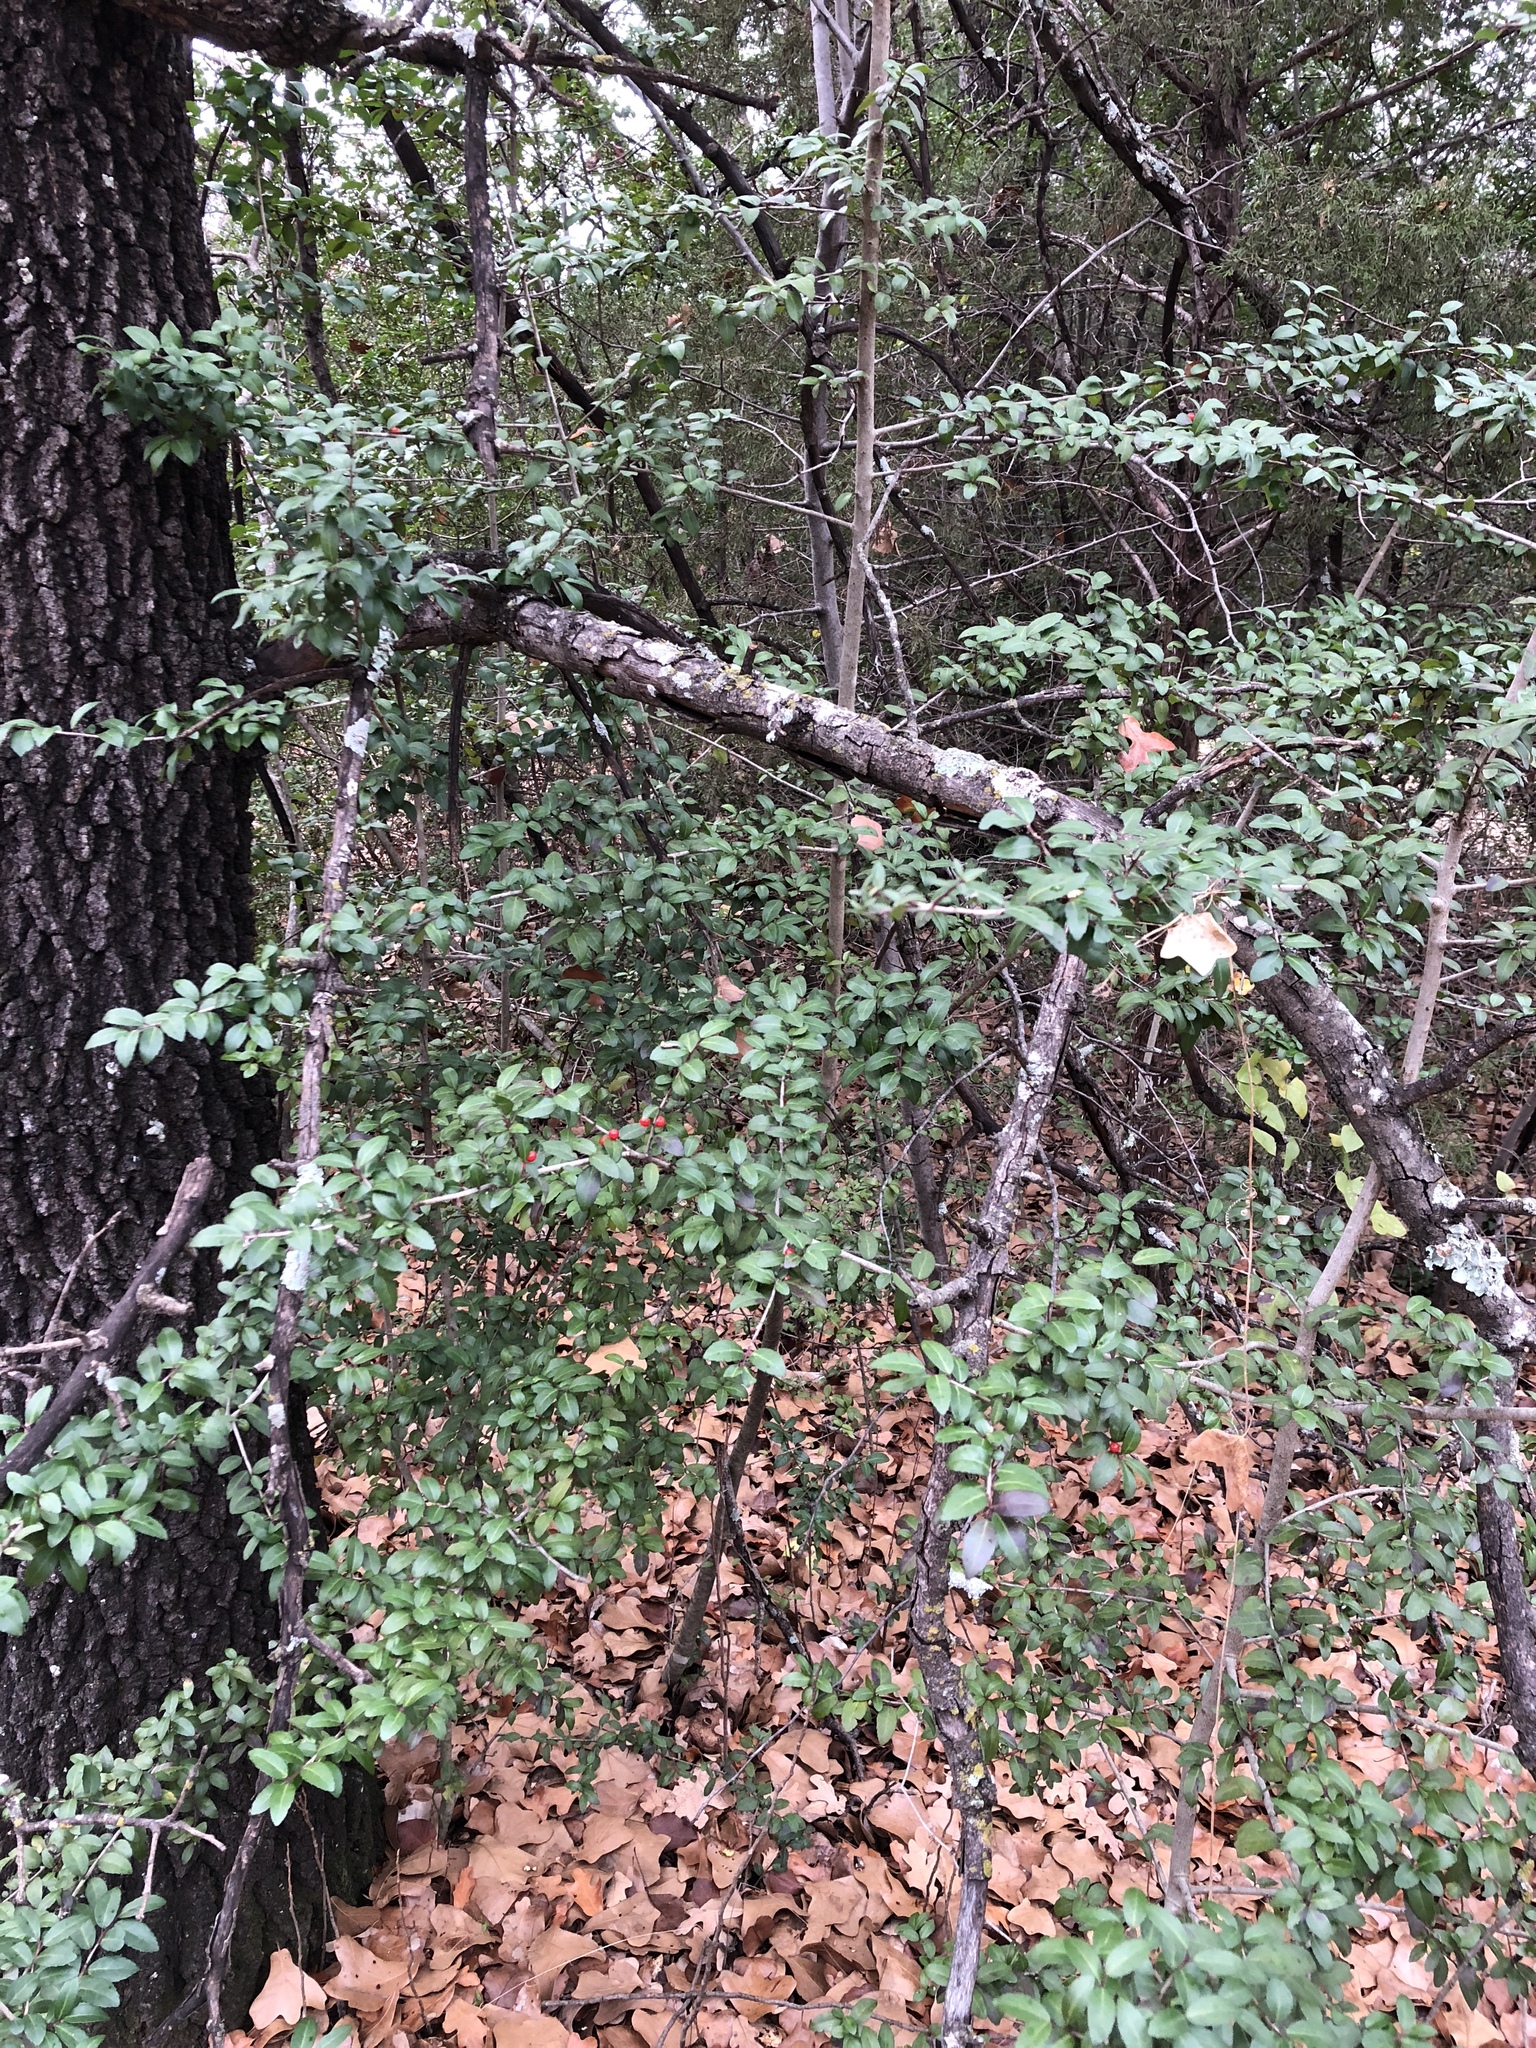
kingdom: Plantae
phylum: Tracheophyta
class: Magnoliopsida
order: Aquifoliales
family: Aquifoliaceae
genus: Ilex
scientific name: Ilex vomitoria
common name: Yaupon holly
